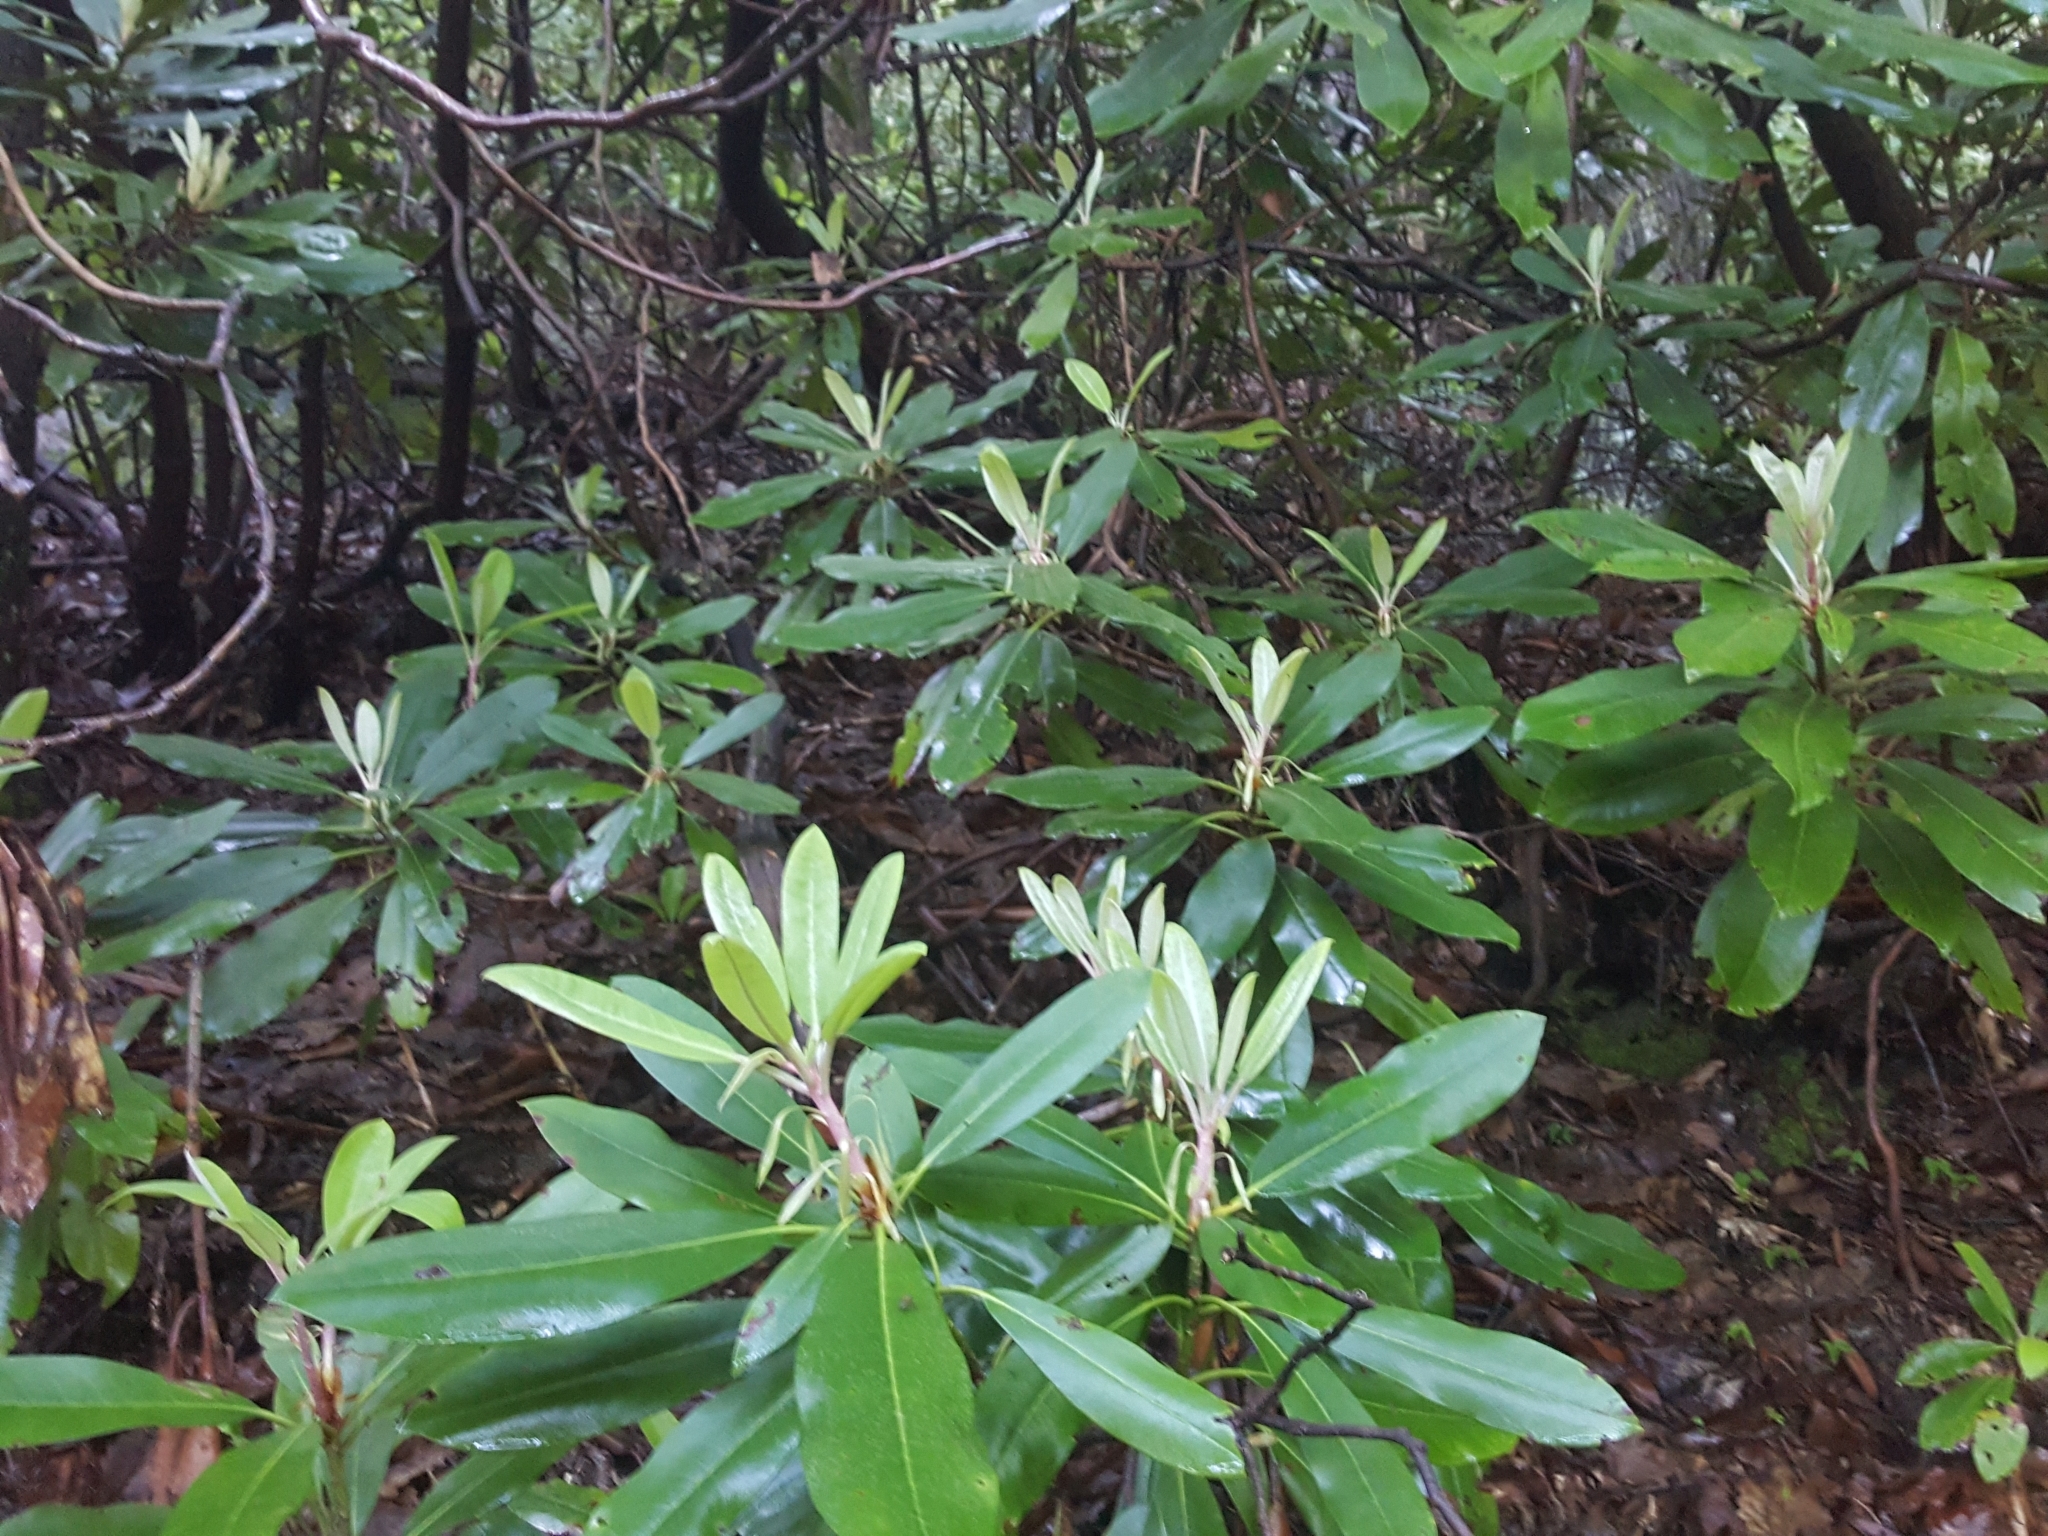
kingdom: Plantae
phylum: Tracheophyta
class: Magnoliopsida
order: Ericales
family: Ericaceae
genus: Rhododendron
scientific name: Rhododendron maximum
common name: Great rhododendron
